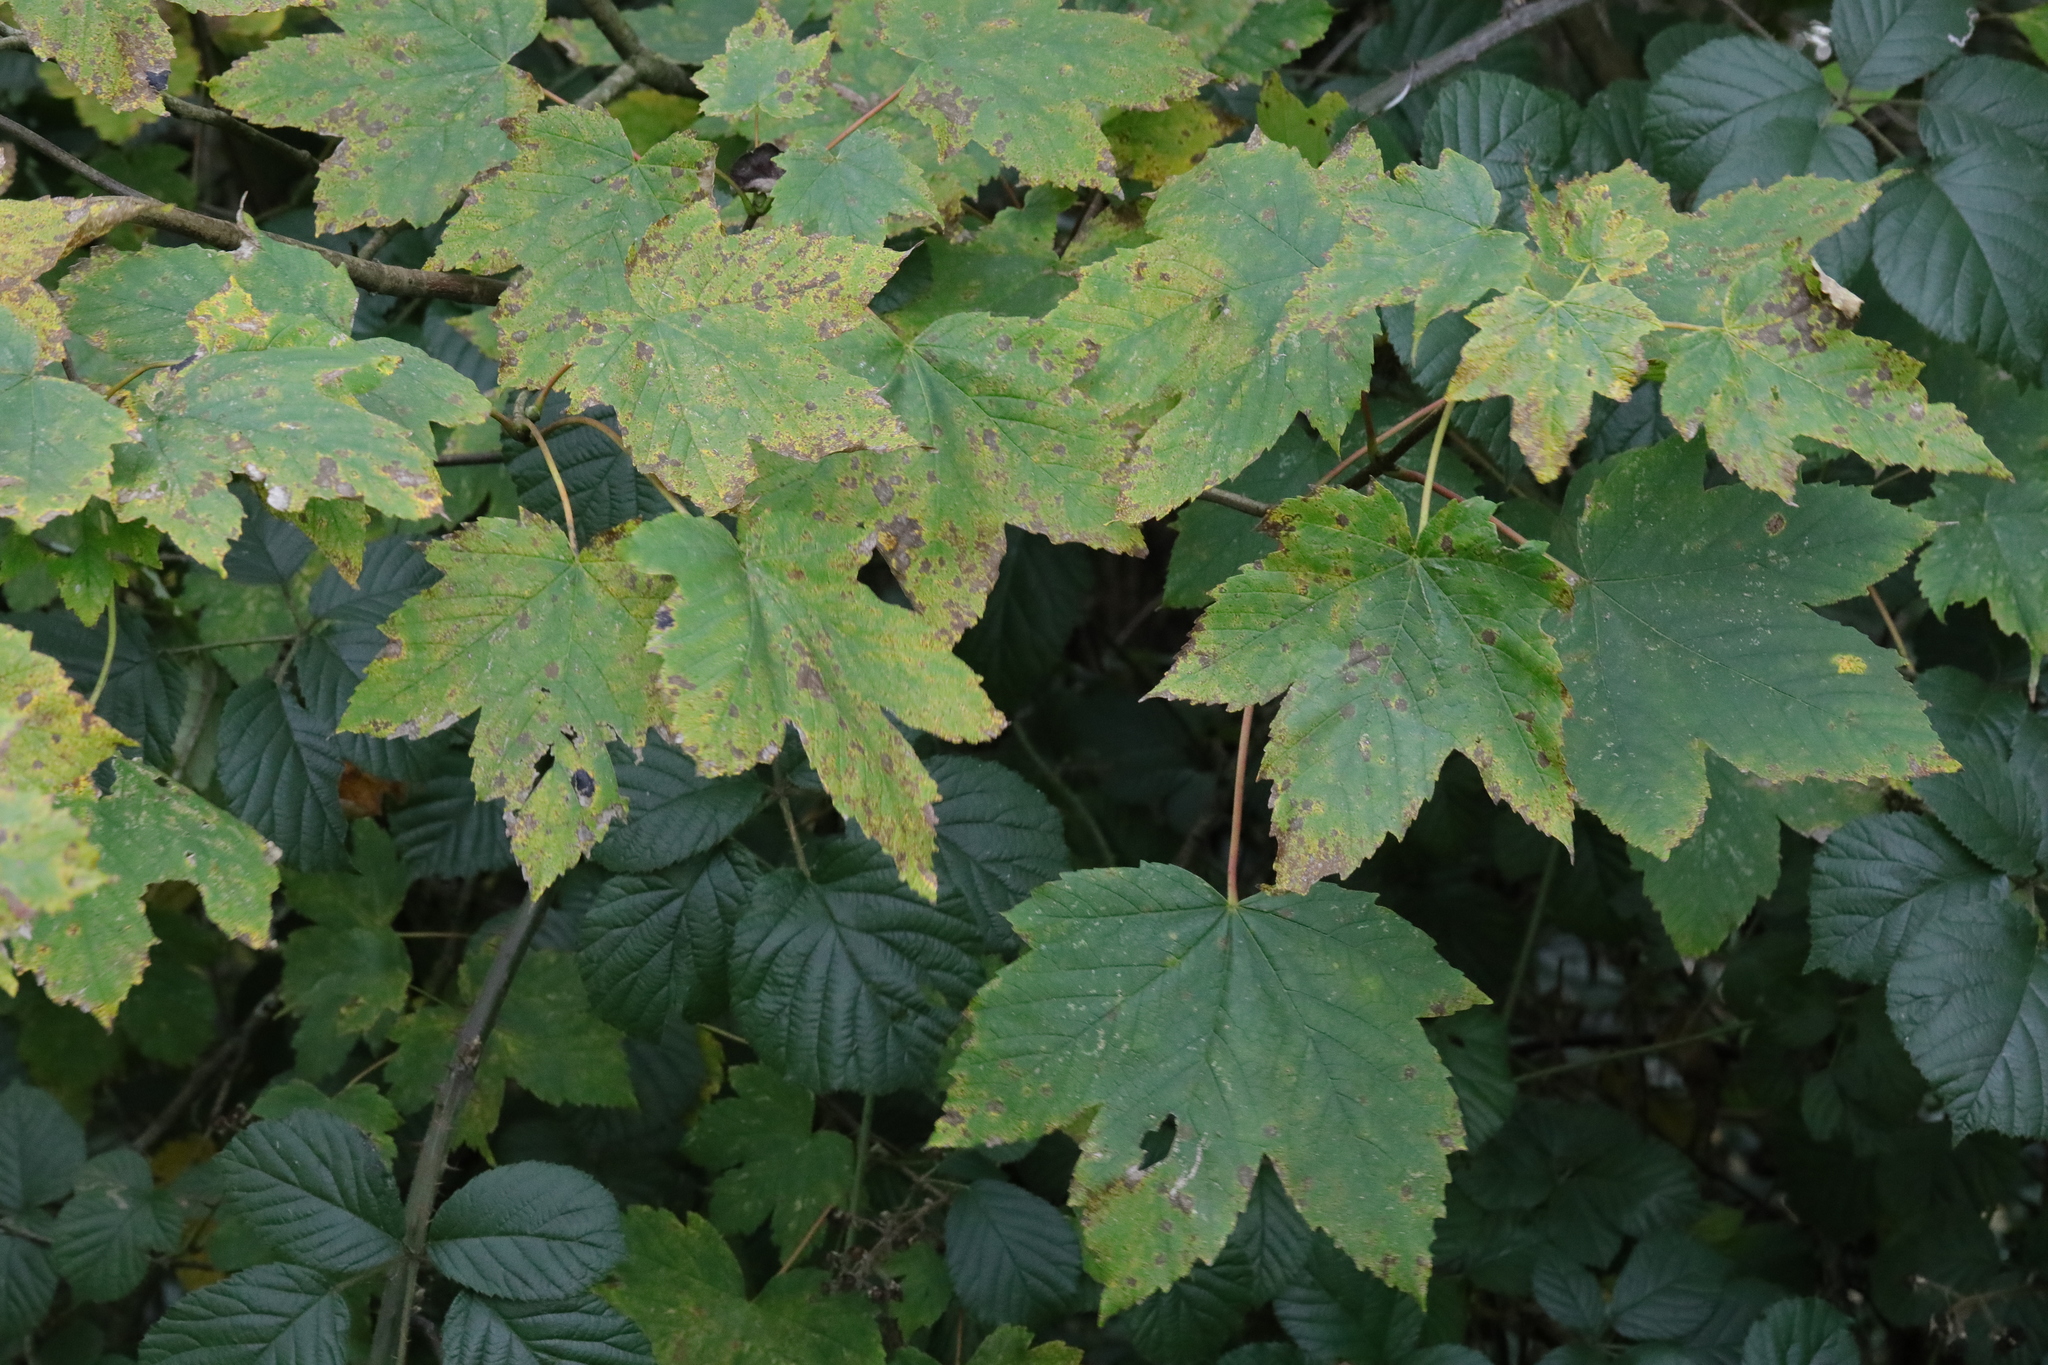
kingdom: Plantae
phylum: Tracheophyta
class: Magnoliopsida
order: Sapindales
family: Sapindaceae
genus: Acer
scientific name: Acer pseudoplatanus
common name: Sycamore
